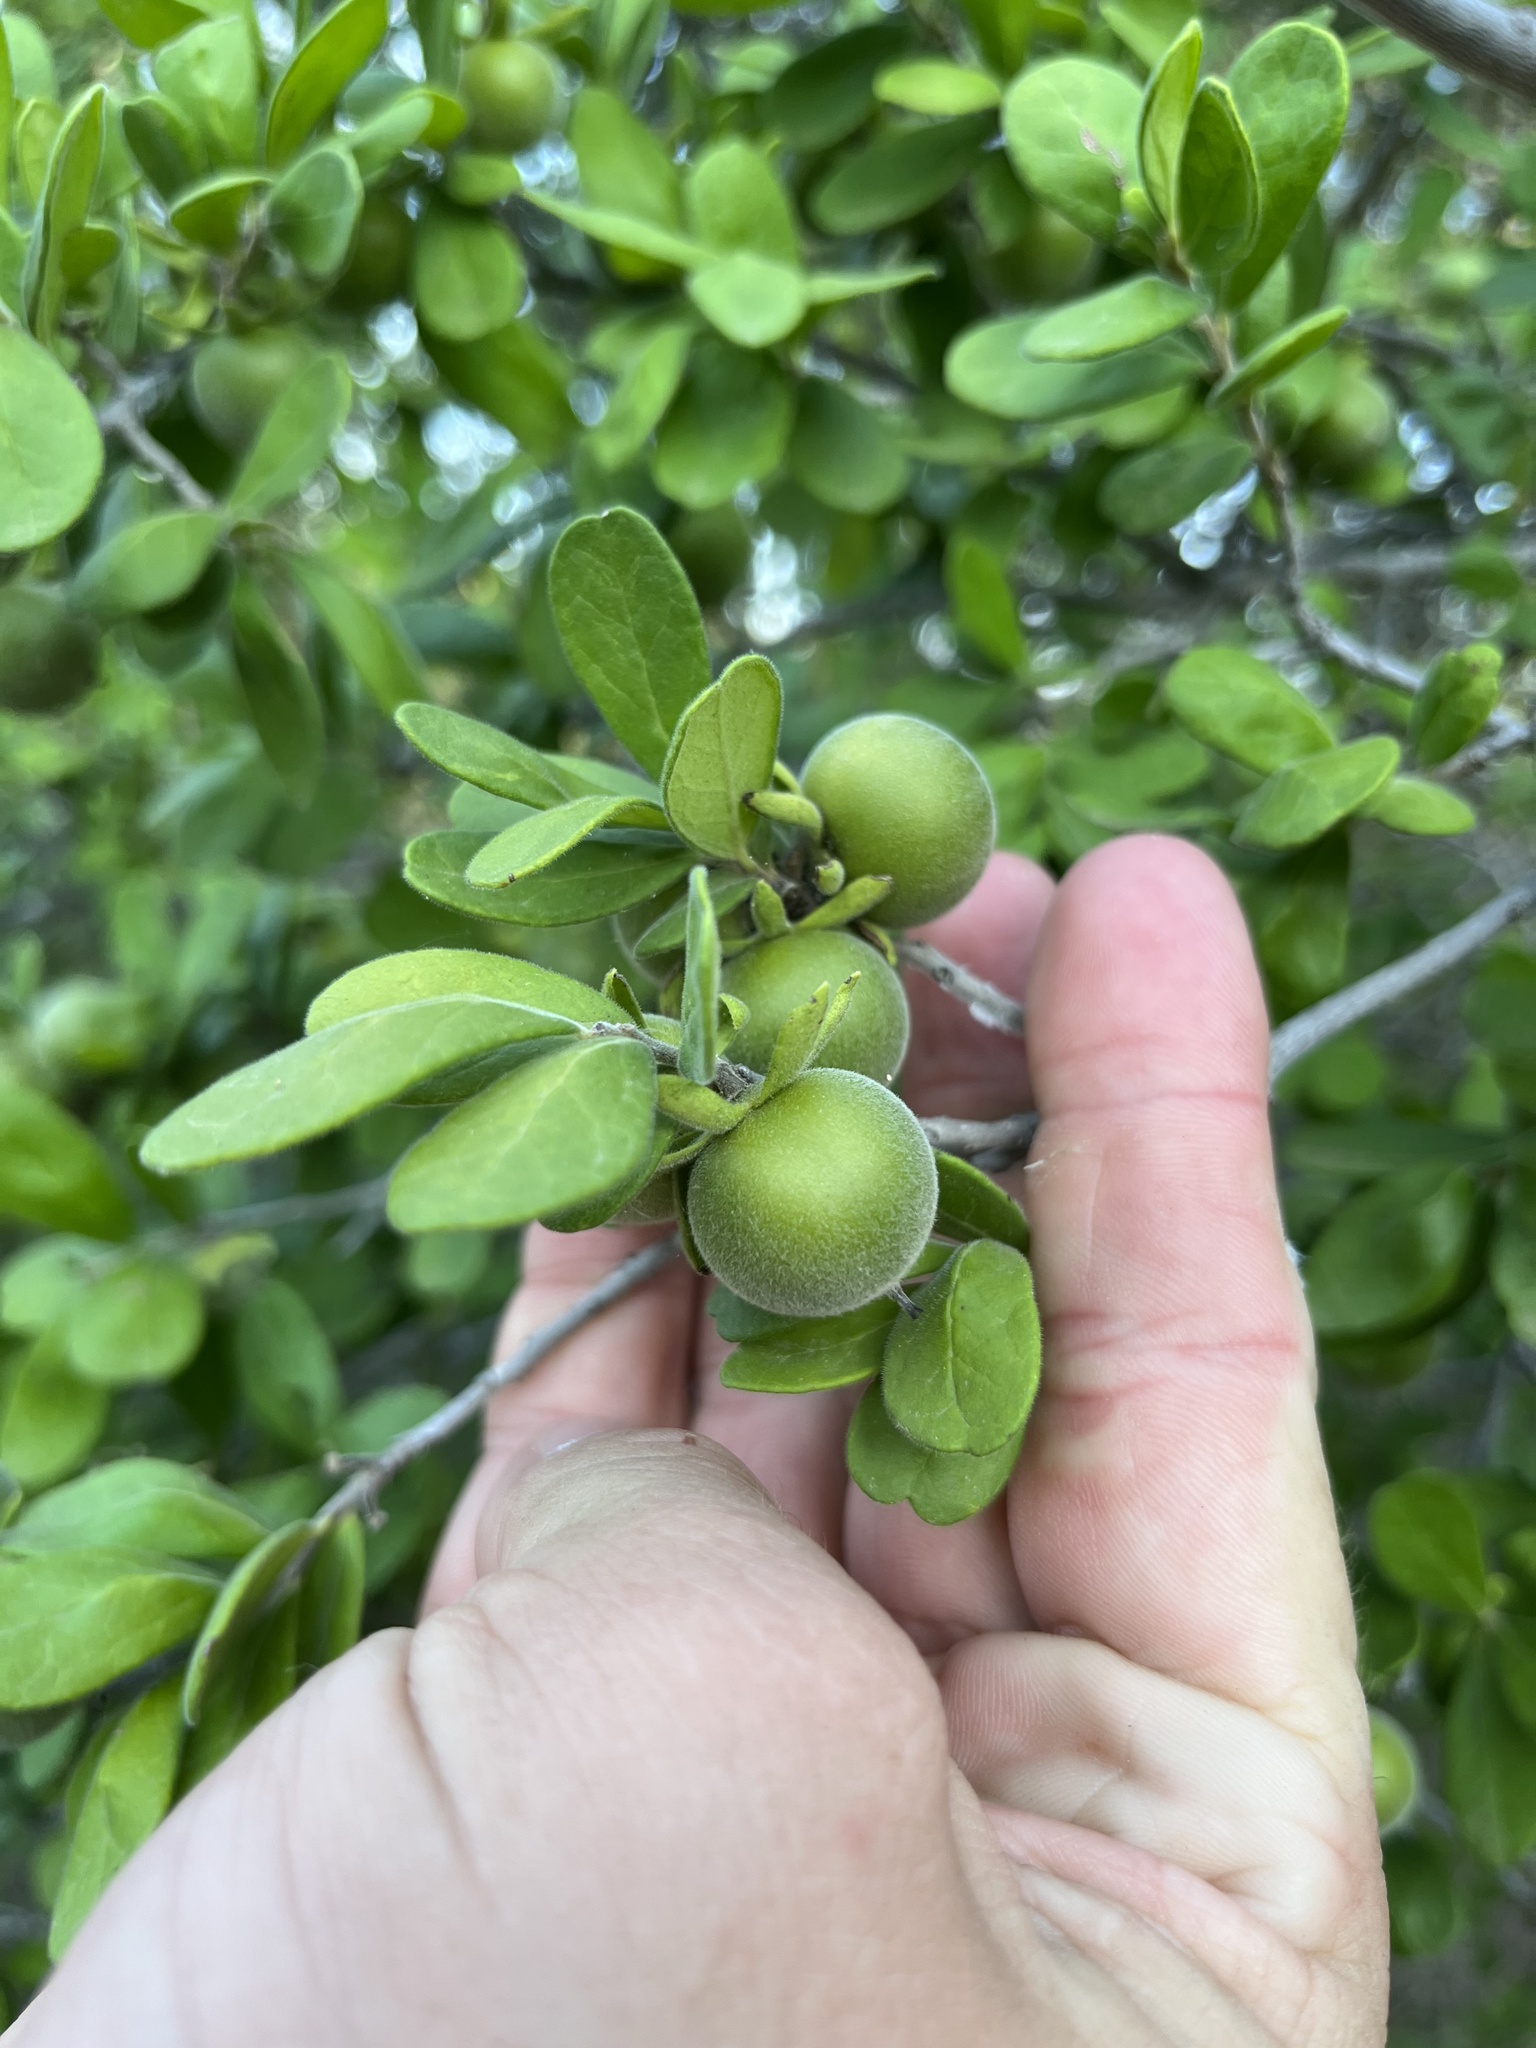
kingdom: Plantae
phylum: Tracheophyta
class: Magnoliopsida
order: Ericales
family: Ebenaceae
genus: Diospyros
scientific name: Diospyros texana
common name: Texas persimmon
